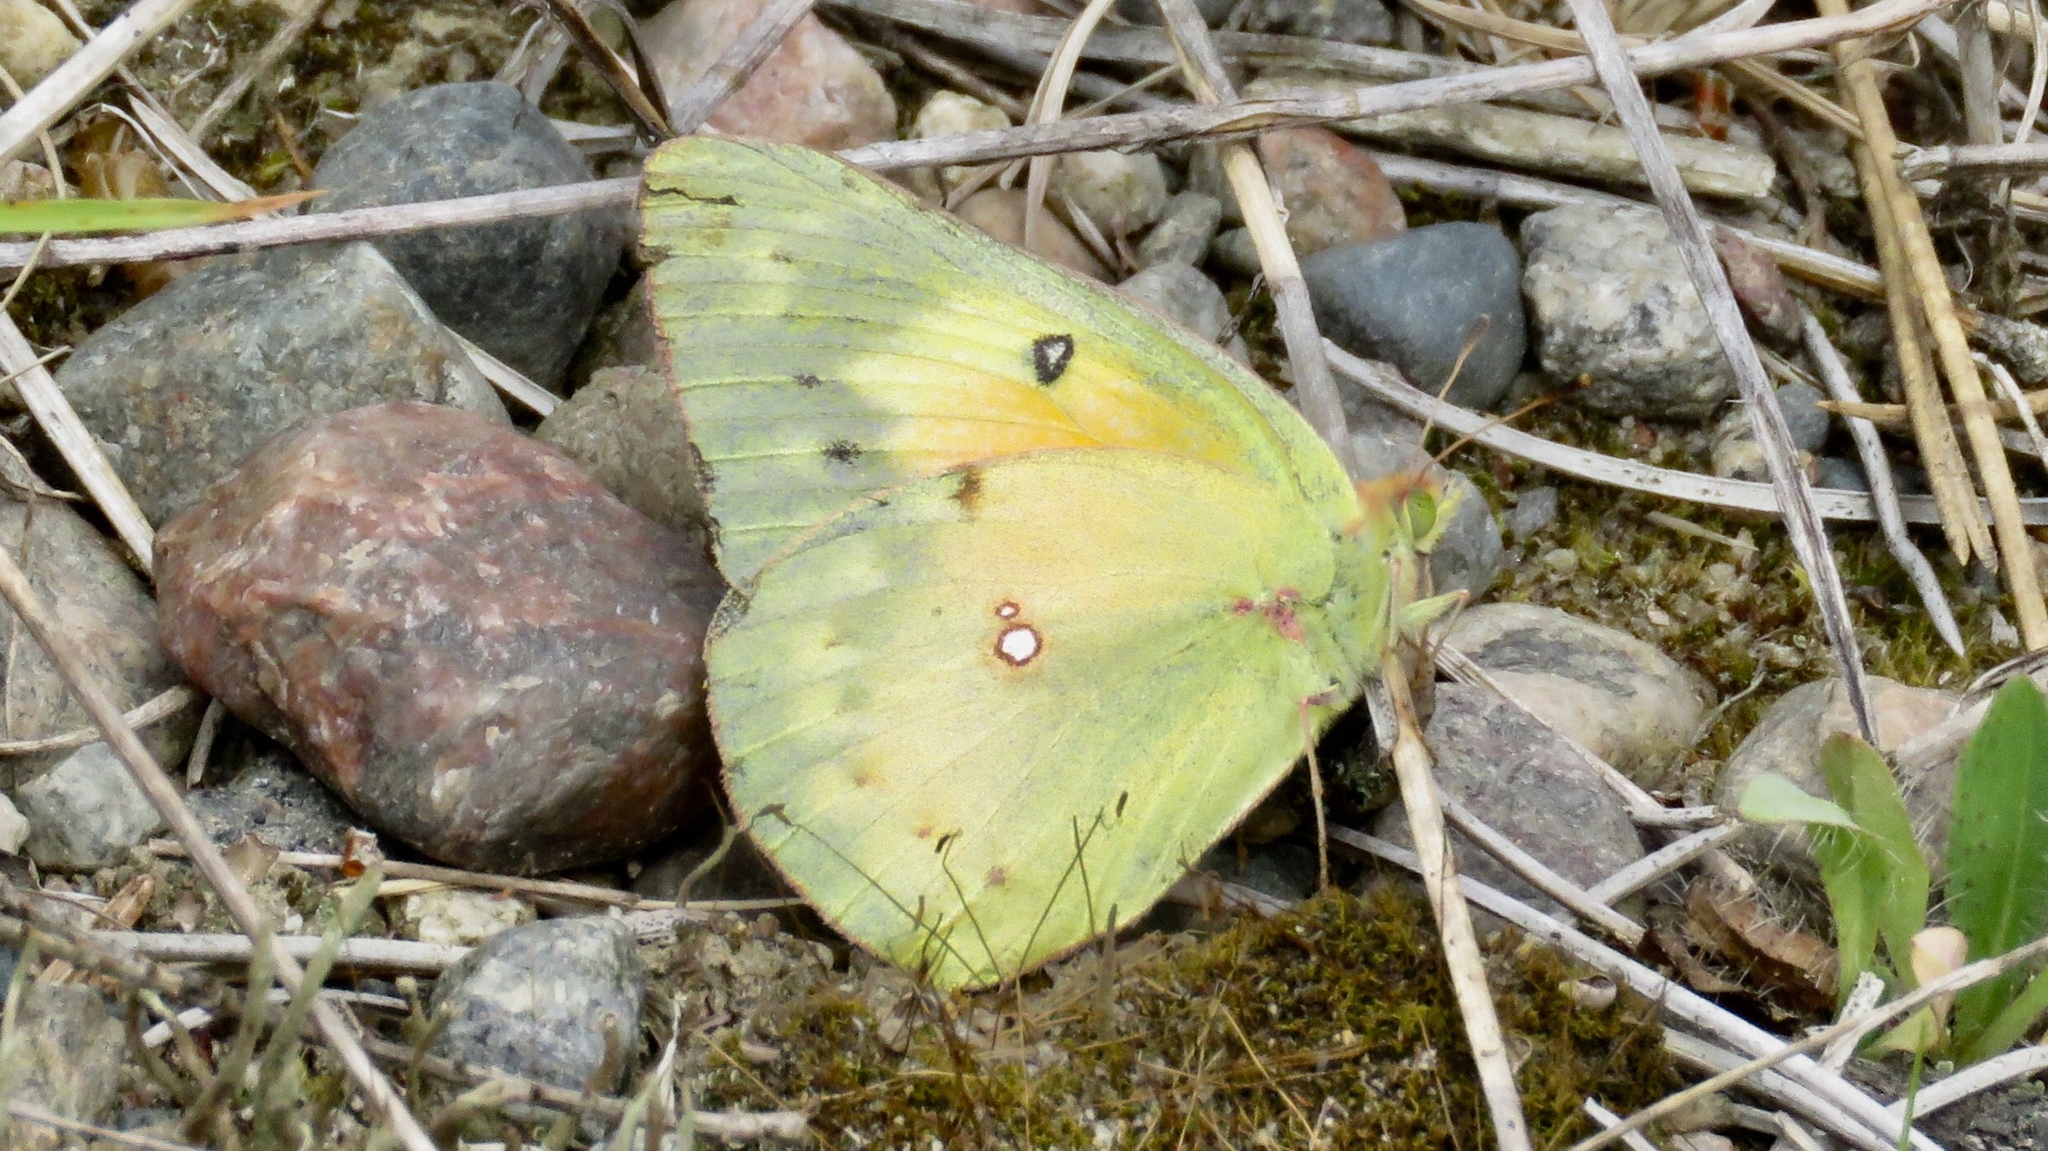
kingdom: Animalia
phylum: Arthropoda
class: Insecta
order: Lepidoptera
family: Pieridae
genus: Colias
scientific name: Colias eurytheme
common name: Alfalfa butterfly
